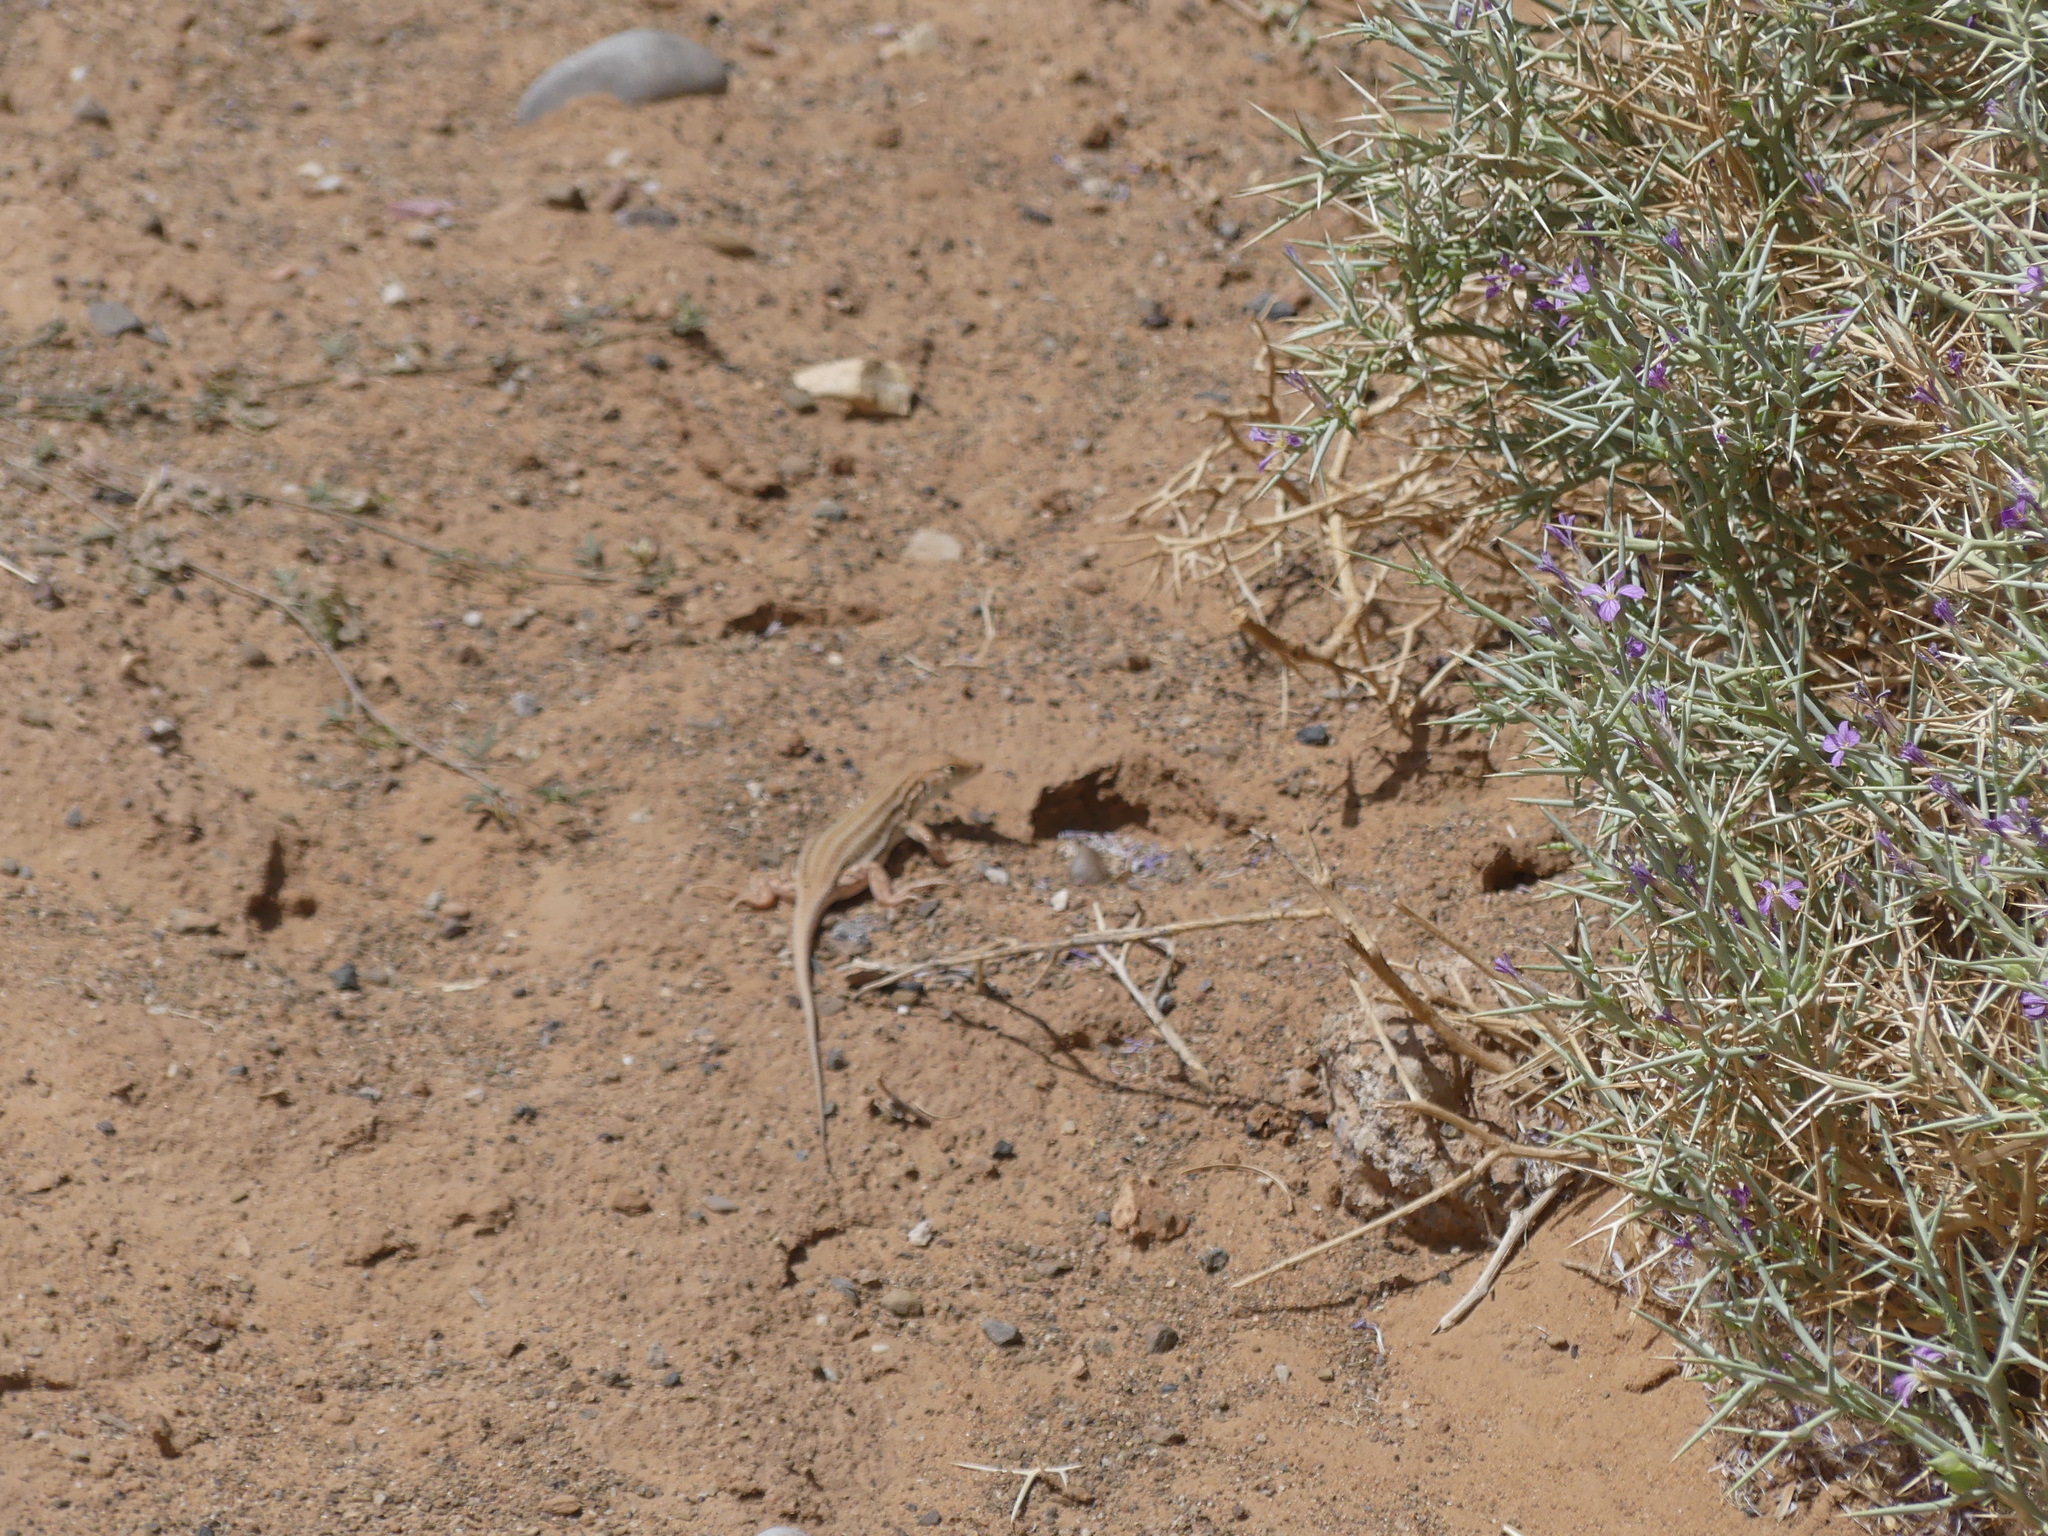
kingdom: Animalia
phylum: Chordata
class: Squamata
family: Lacertidae
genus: Acanthodactylus
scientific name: Acanthodactylus boskianus
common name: Bosc’s fringe-toed lizard
